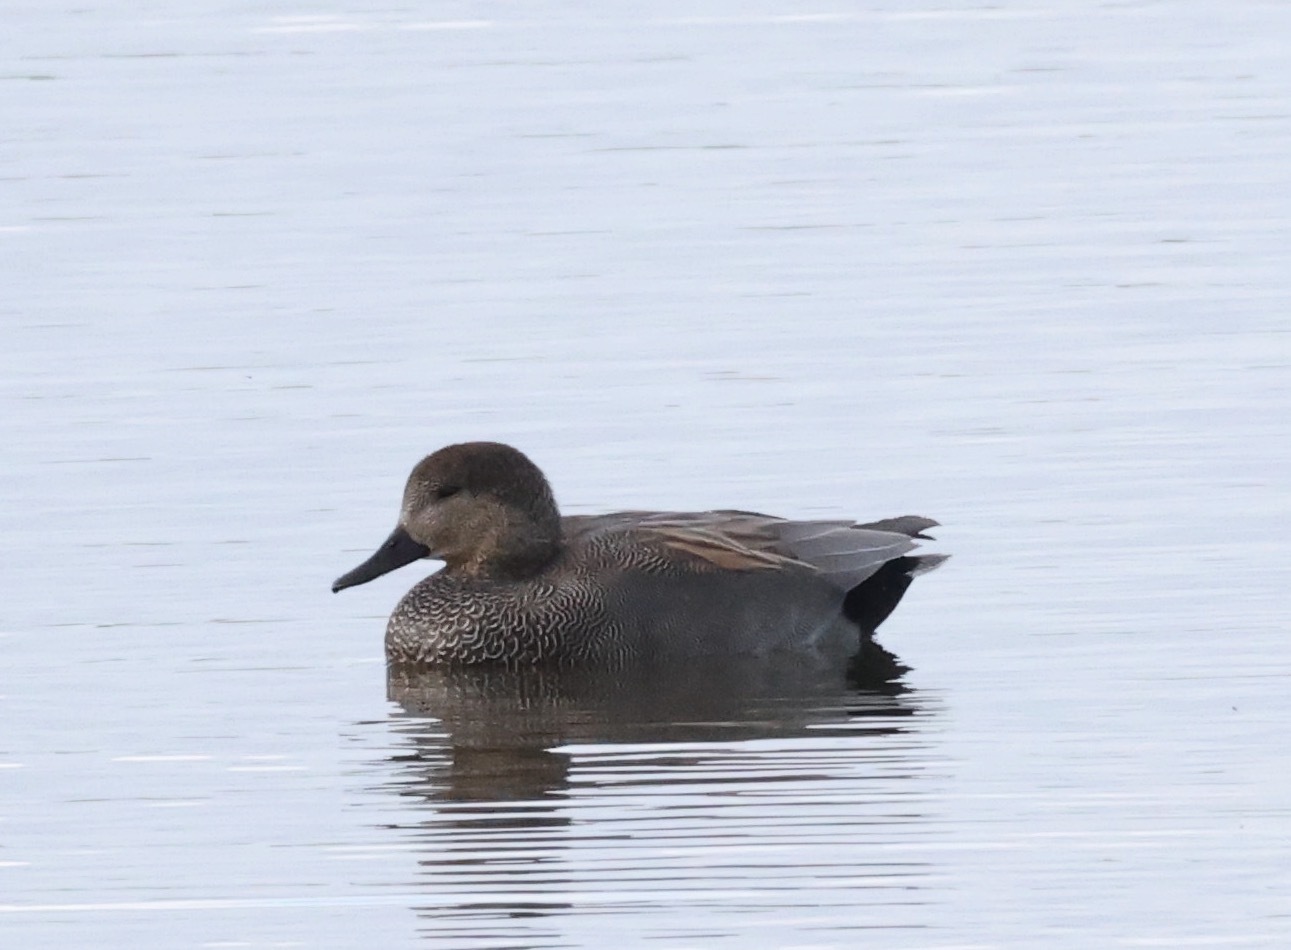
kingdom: Animalia
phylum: Chordata
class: Aves
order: Anseriformes
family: Anatidae
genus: Mareca
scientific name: Mareca strepera
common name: Gadwall
